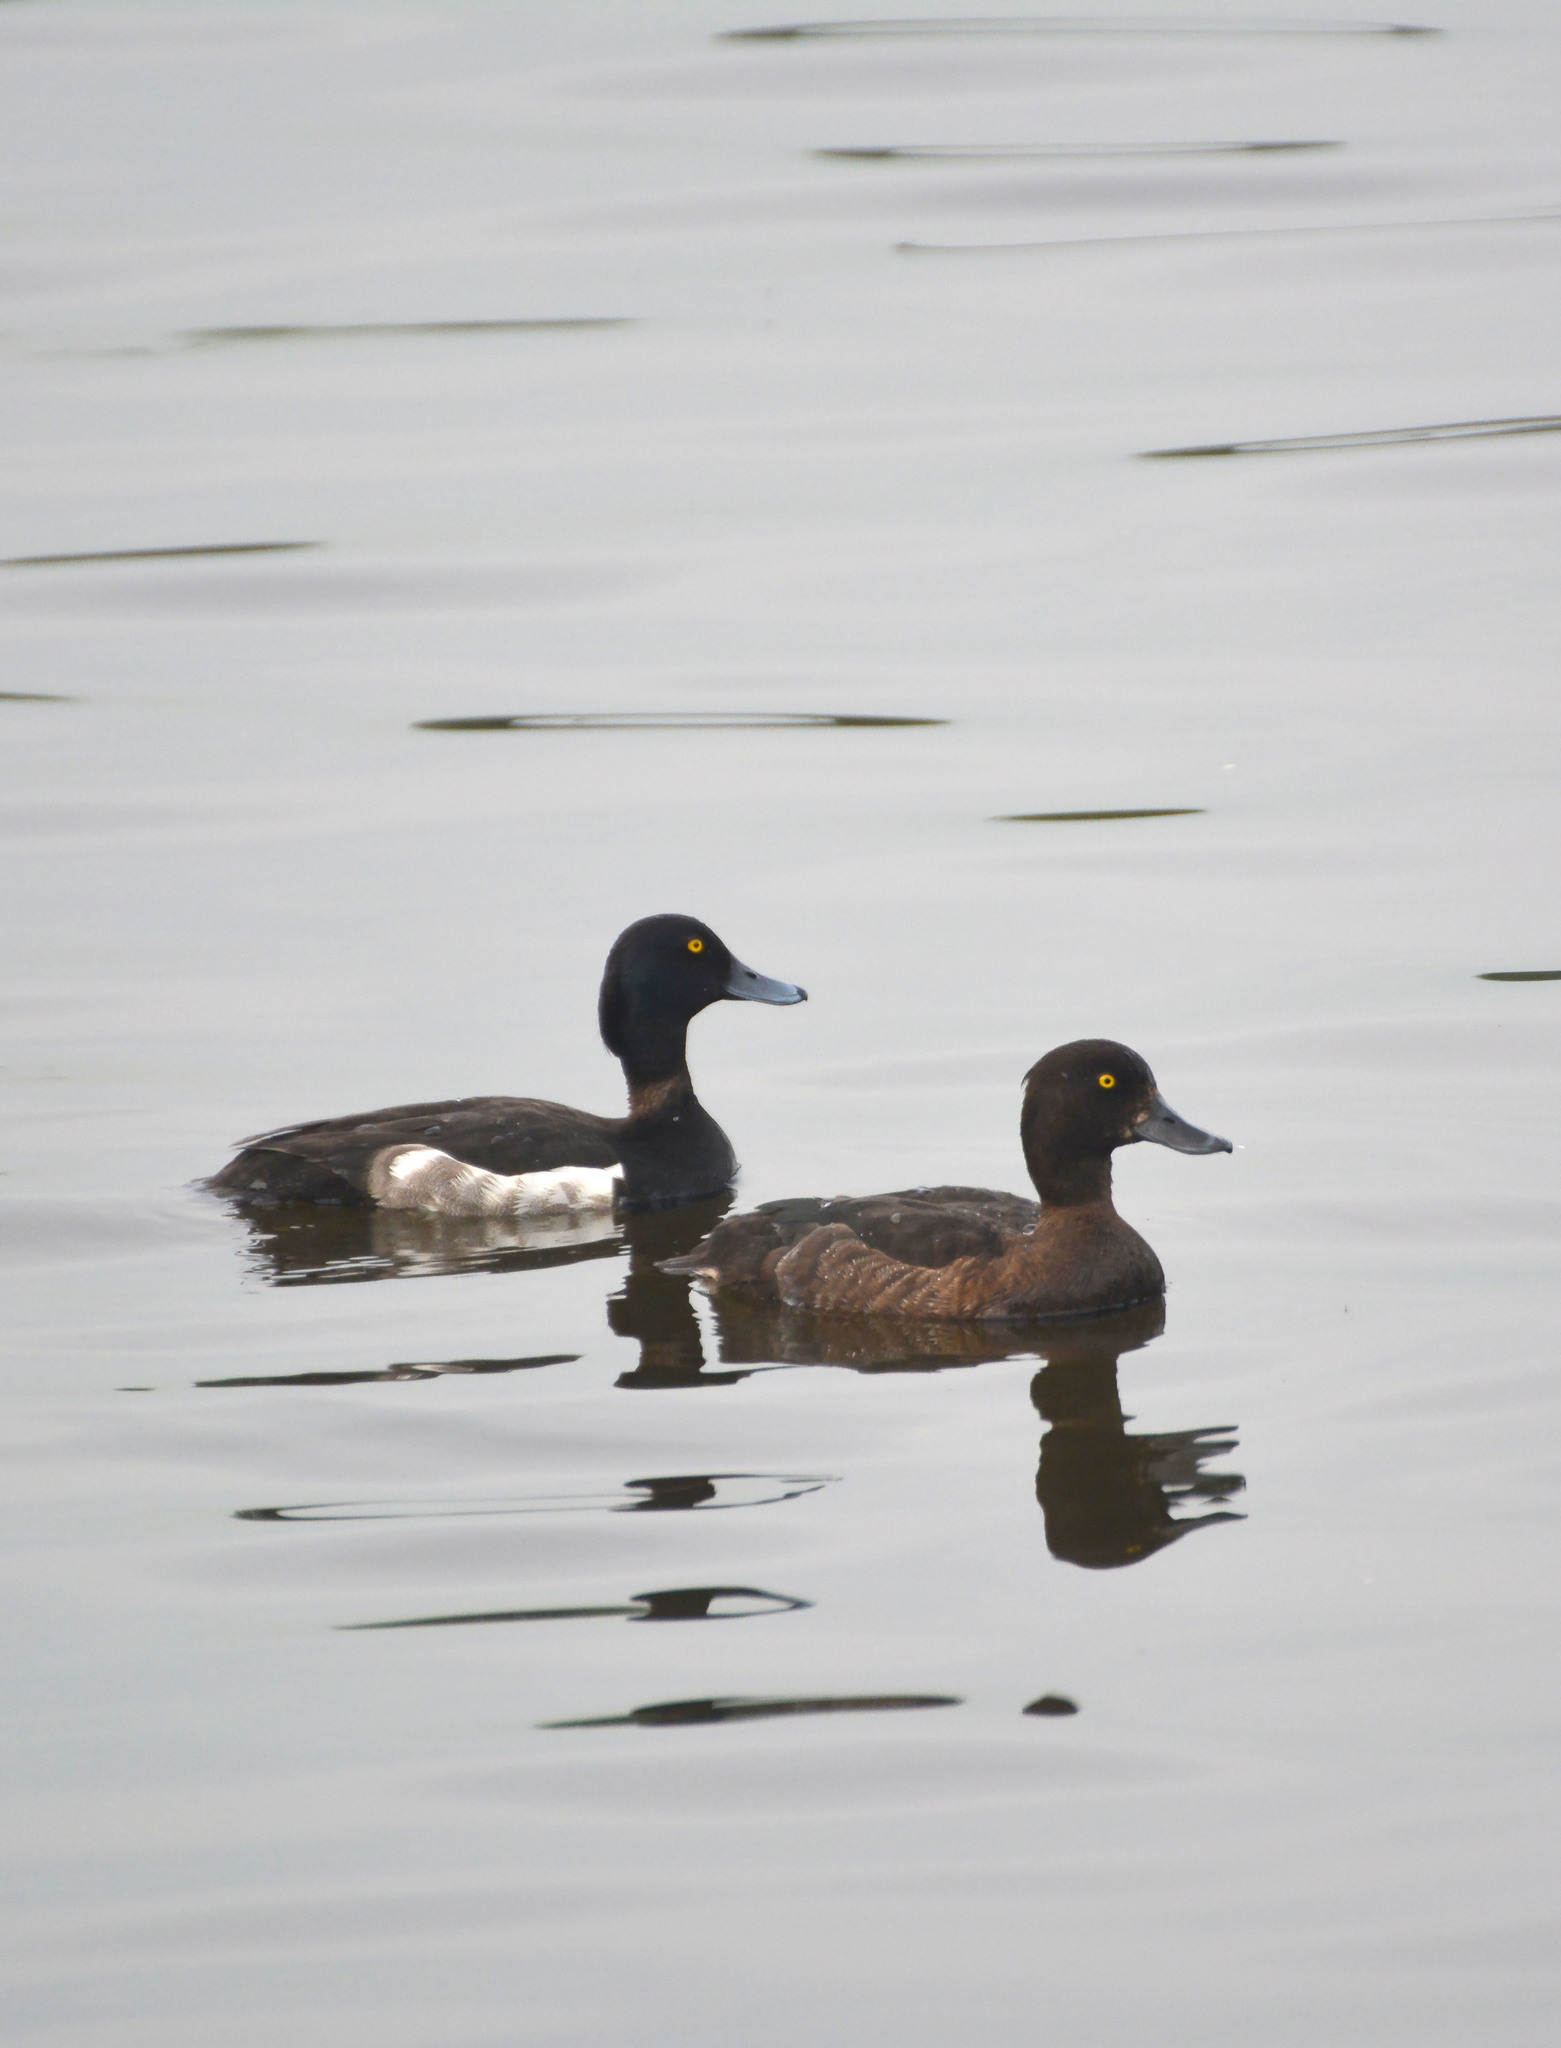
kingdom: Animalia
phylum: Chordata
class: Aves
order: Anseriformes
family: Anatidae
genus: Aythya
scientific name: Aythya fuligula
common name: Tufted duck
